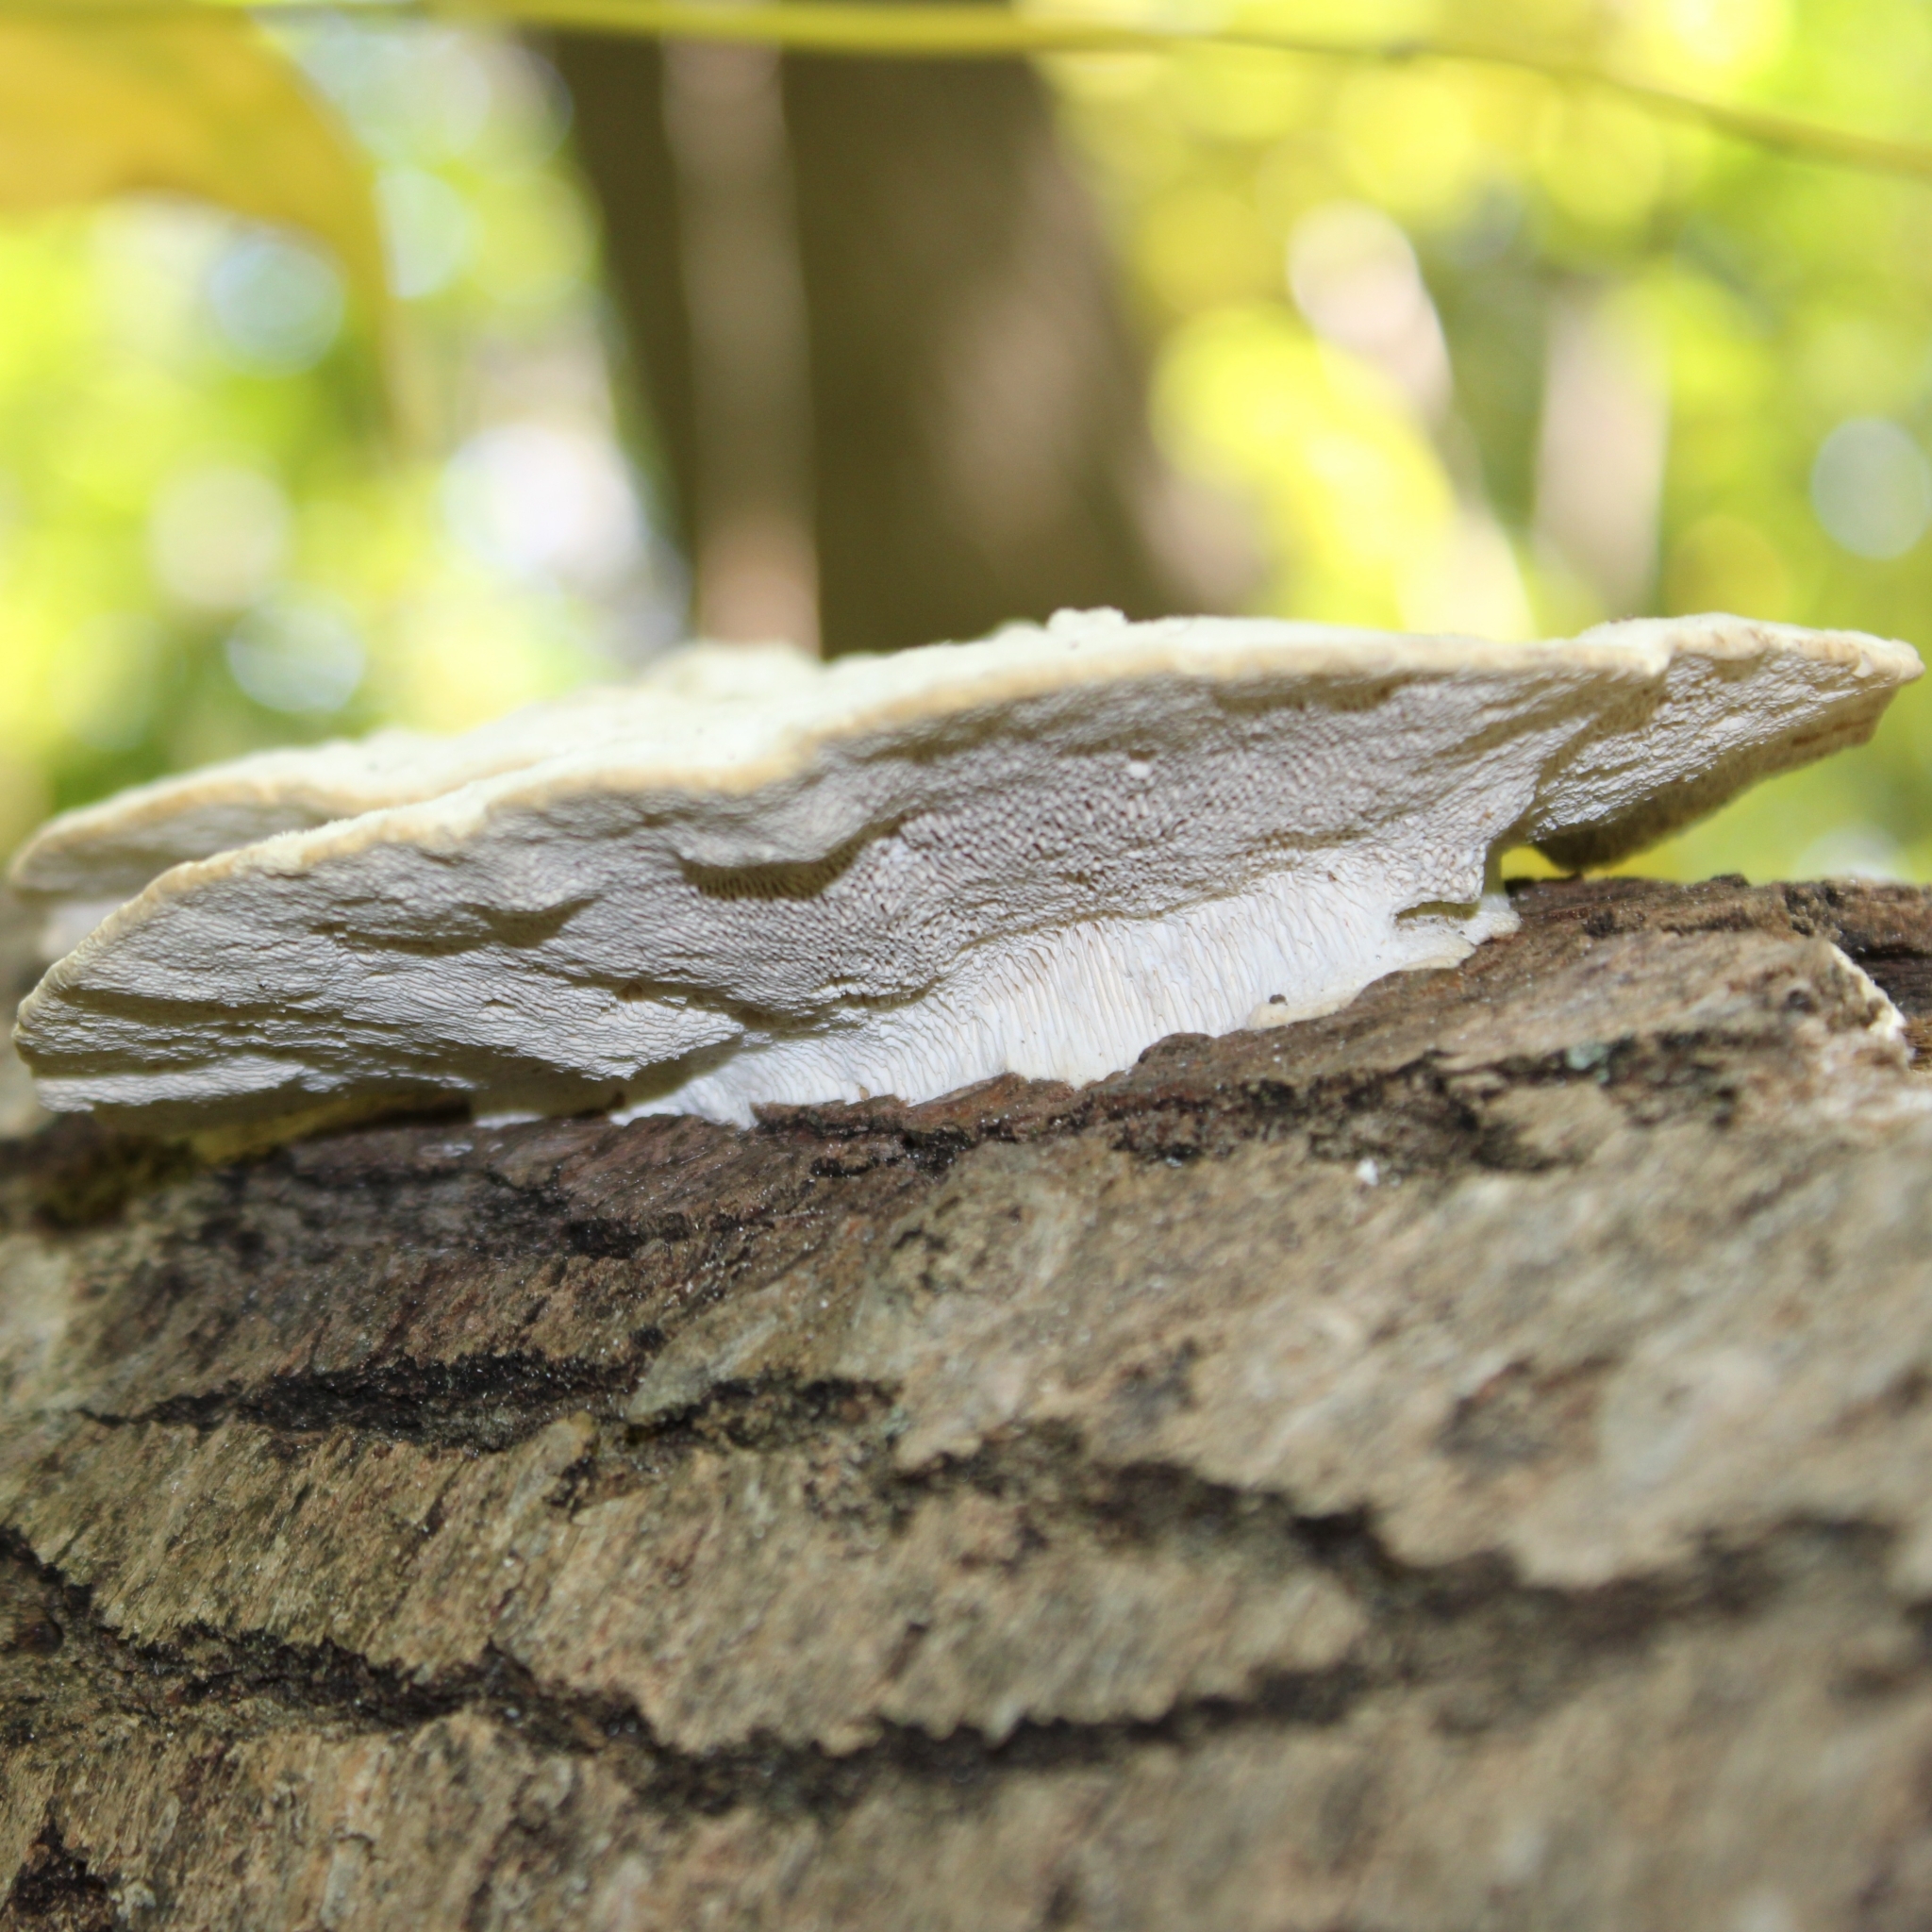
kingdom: Fungi
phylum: Basidiomycota
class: Agaricomycetes
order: Polyporales
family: Polyporaceae
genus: Trametes
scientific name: Trametes gibbosa
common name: Lumpy bracket
